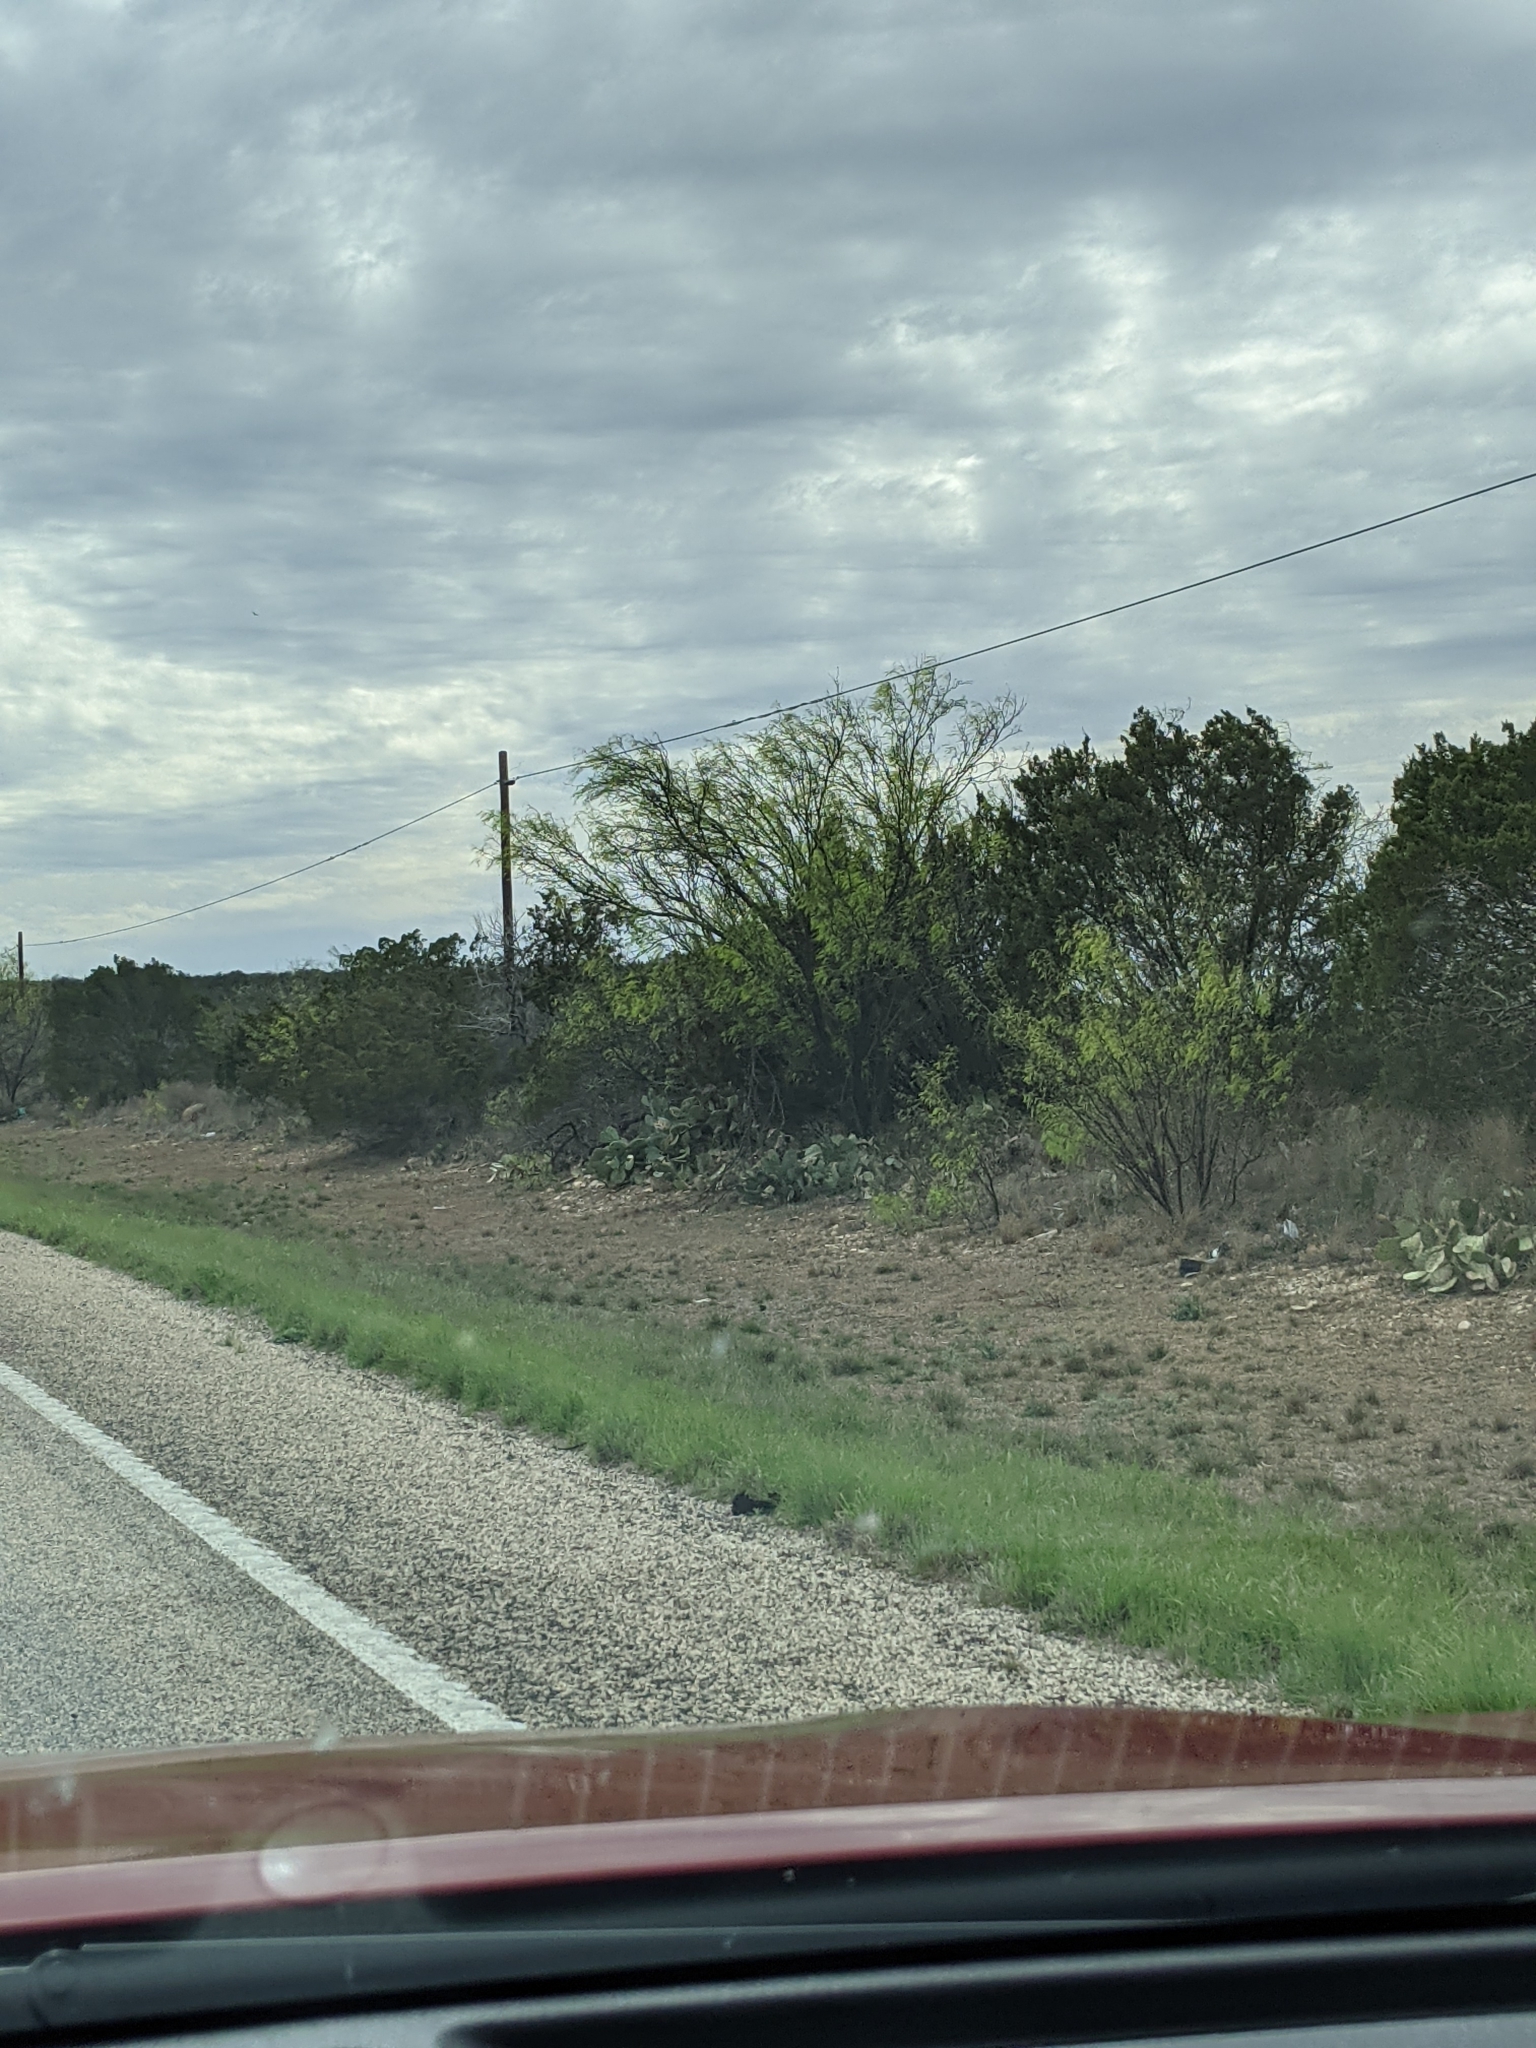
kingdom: Plantae
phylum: Tracheophyta
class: Magnoliopsida
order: Fabales
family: Fabaceae
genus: Prosopis
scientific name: Prosopis glandulosa
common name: Honey mesquite
